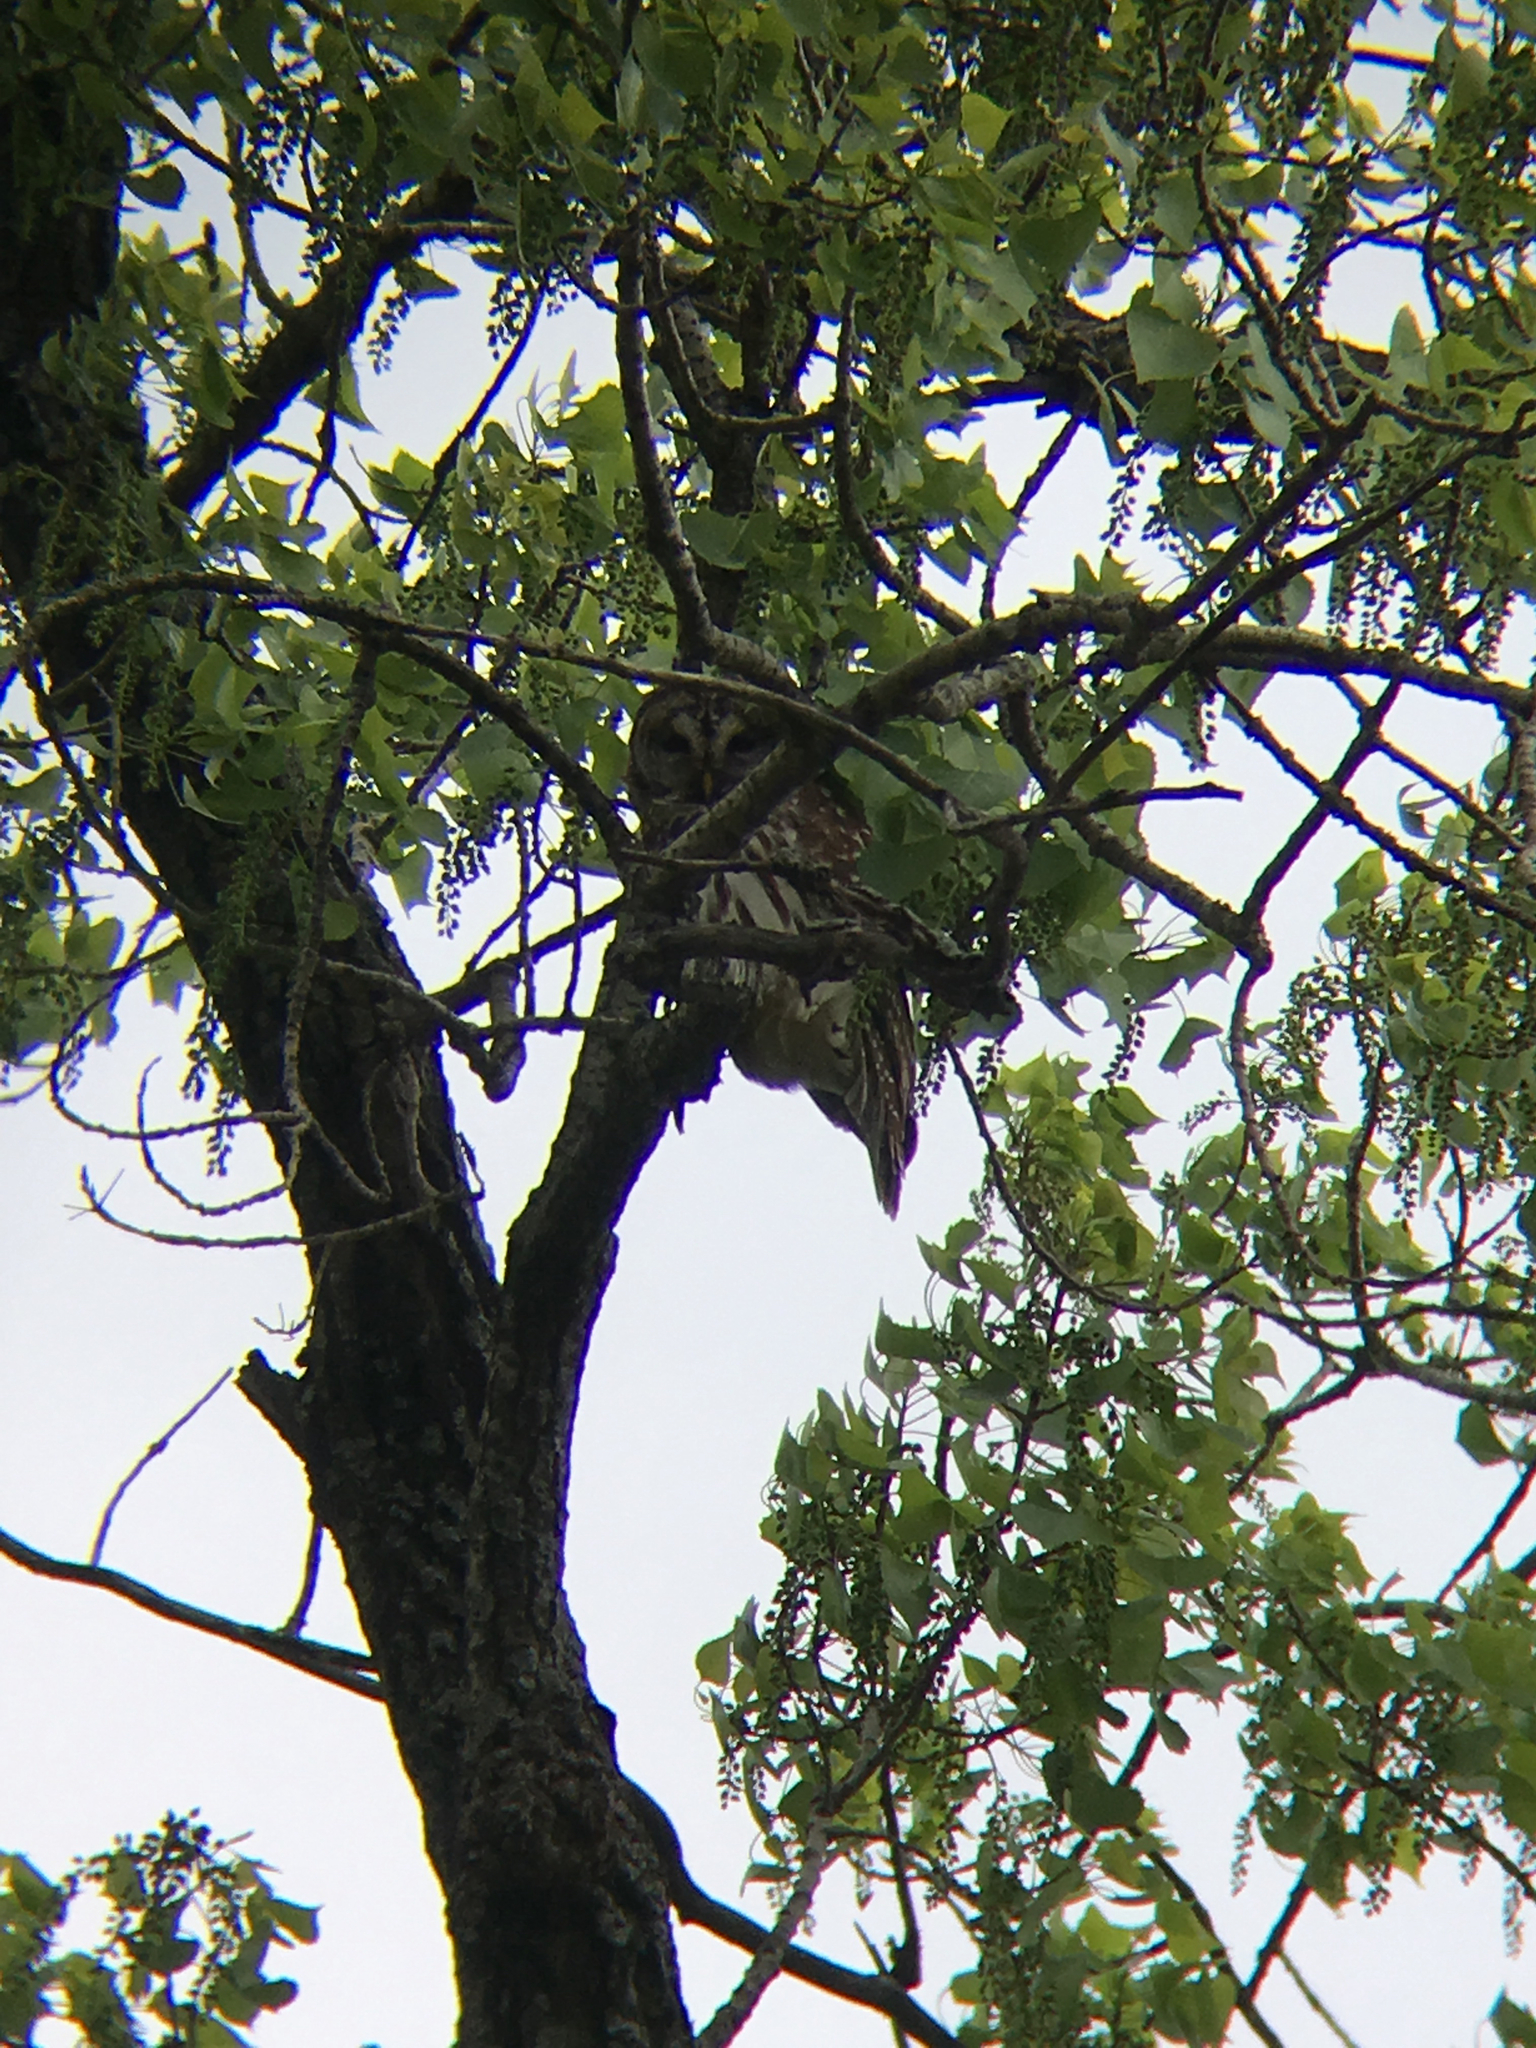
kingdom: Animalia
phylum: Chordata
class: Aves
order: Strigiformes
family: Strigidae
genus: Strix
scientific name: Strix varia
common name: Barred owl
